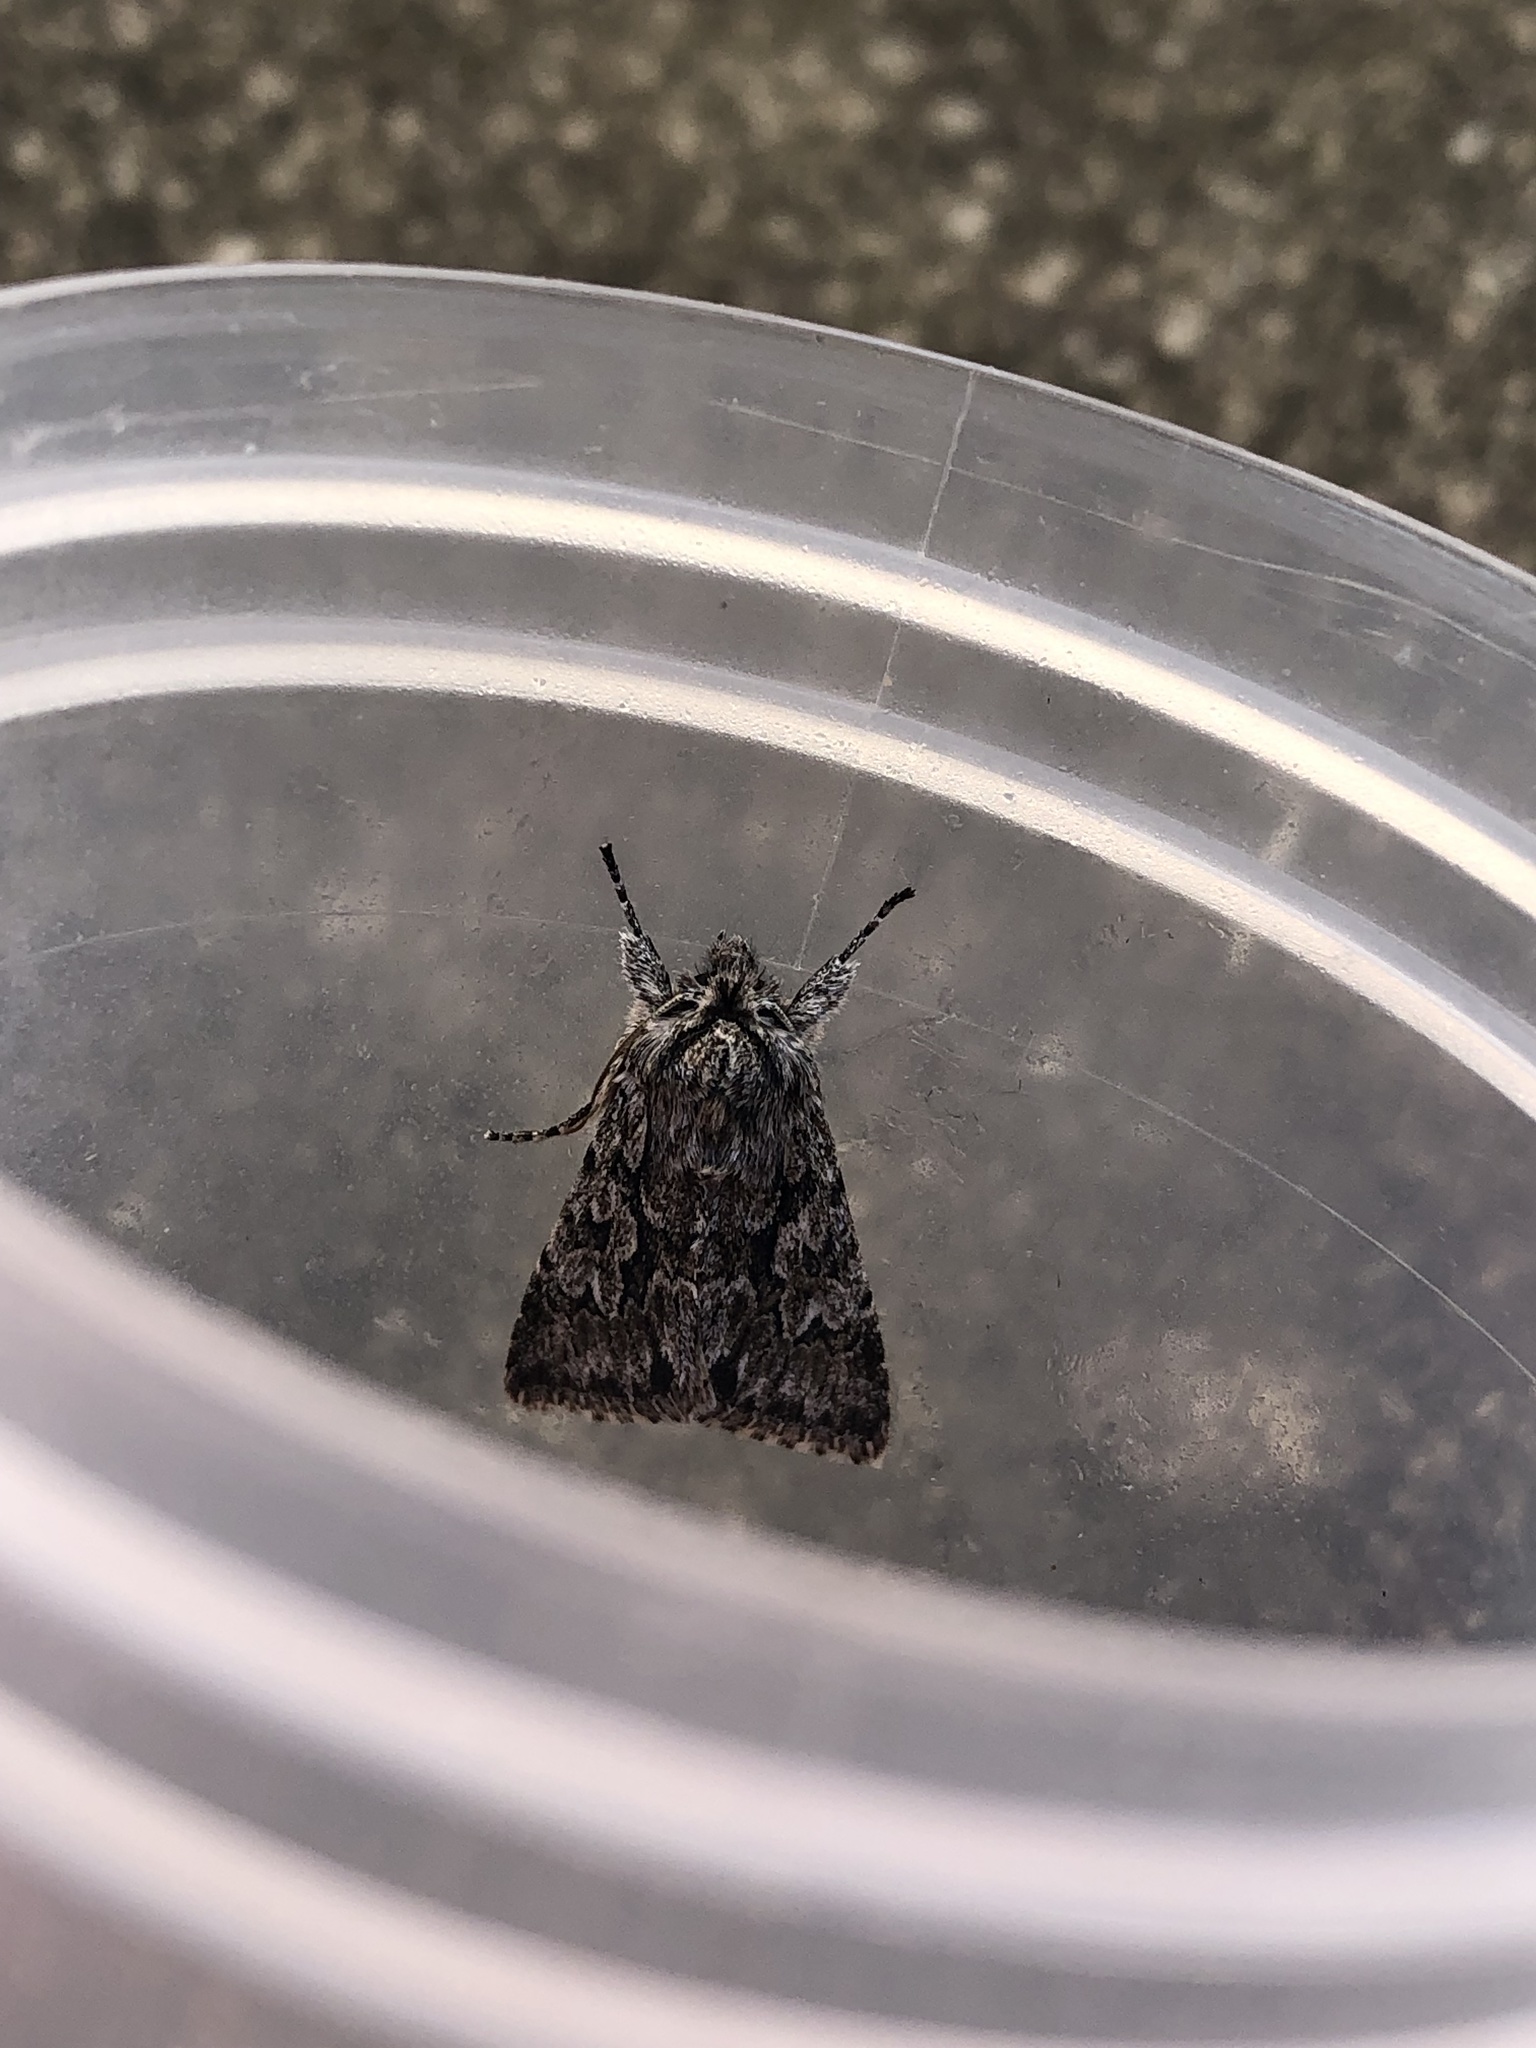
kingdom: Animalia
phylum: Arthropoda
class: Insecta
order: Lepidoptera
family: Noctuidae
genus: Xylocampa
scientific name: Xylocampa areola
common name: Early grey
